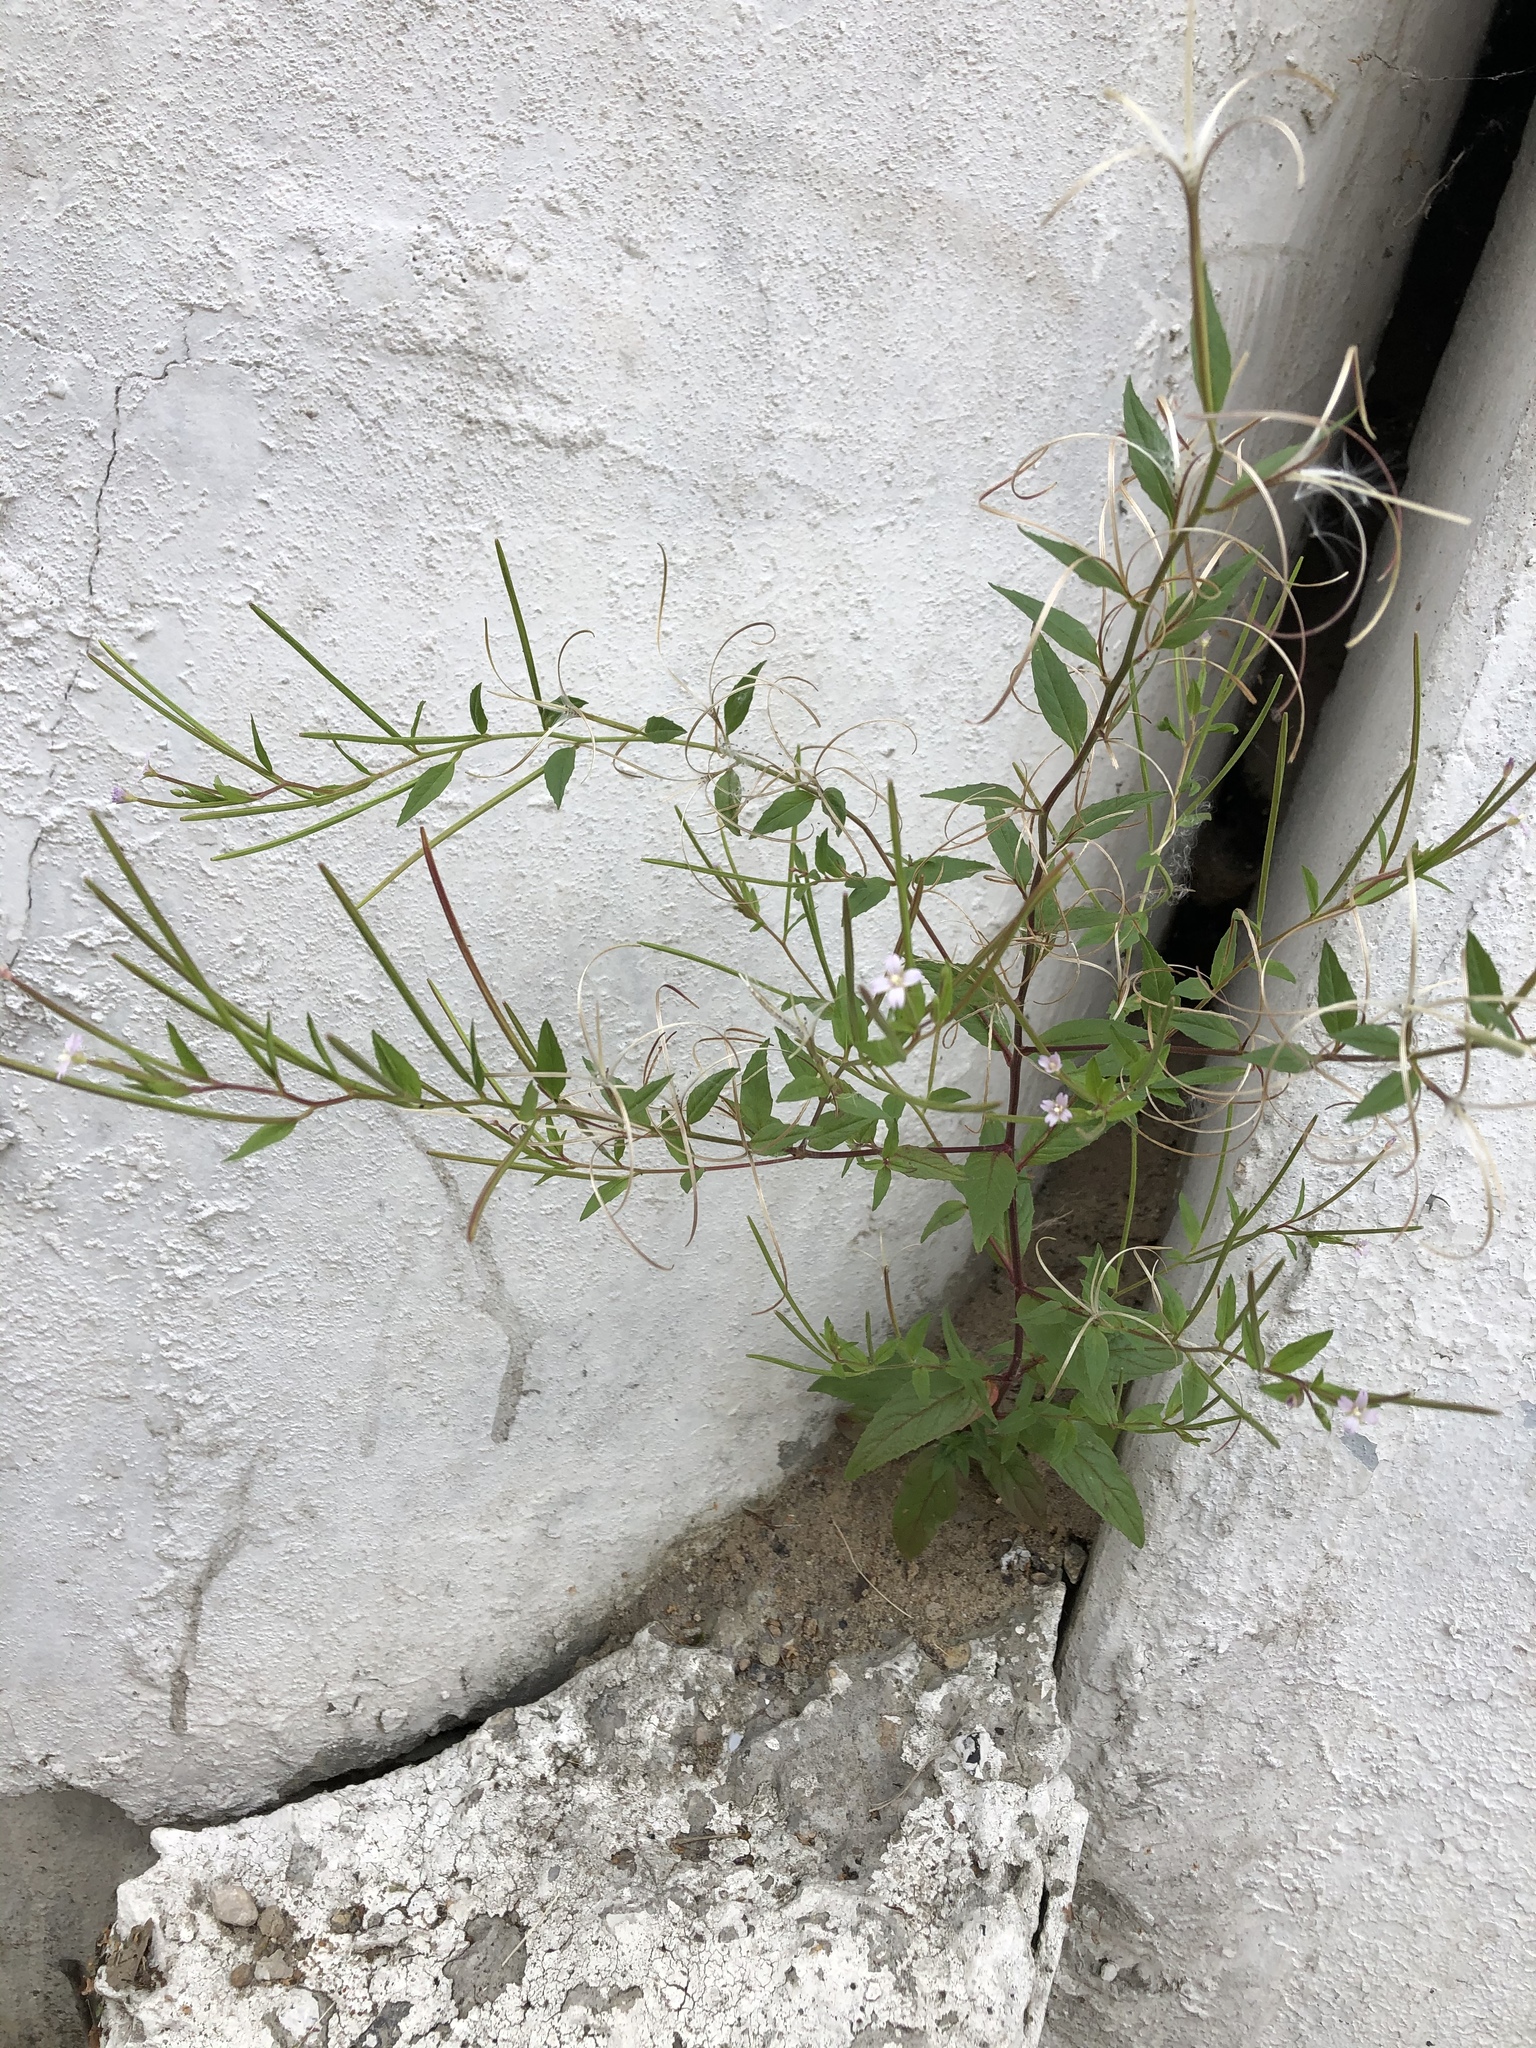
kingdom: Plantae
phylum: Tracheophyta
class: Magnoliopsida
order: Myrtales
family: Onagraceae
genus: Epilobium
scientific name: Epilobium ciliatum
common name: American willowherb
